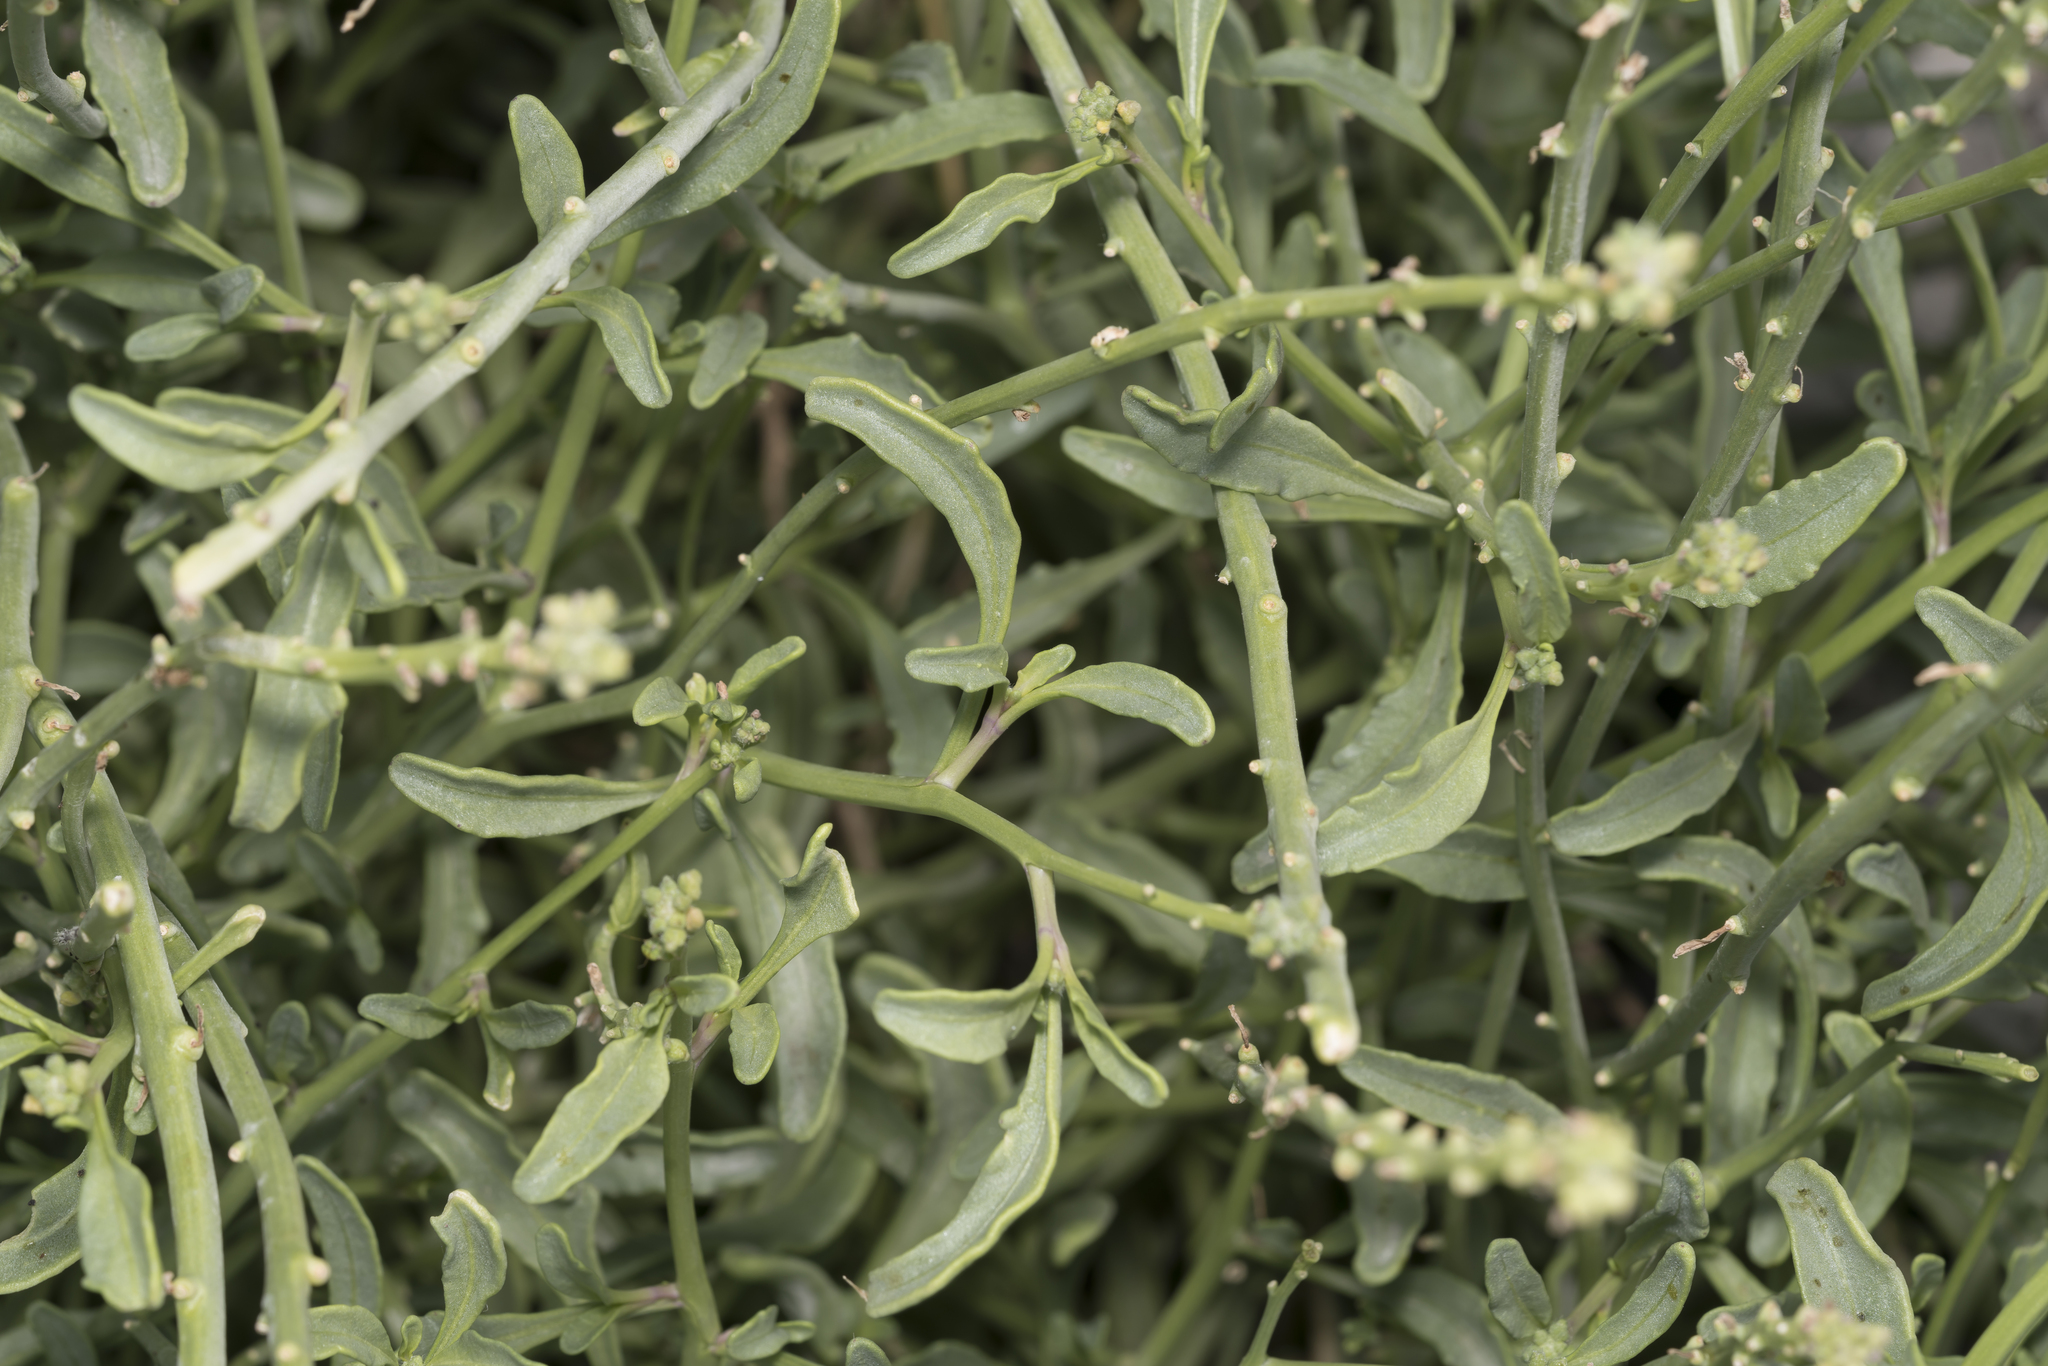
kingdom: Plantae
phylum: Tracheophyta
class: Magnoliopsida
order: Brassicales
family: Brassicaceae
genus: Cakile
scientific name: Cakile maritima
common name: Sea rocket
